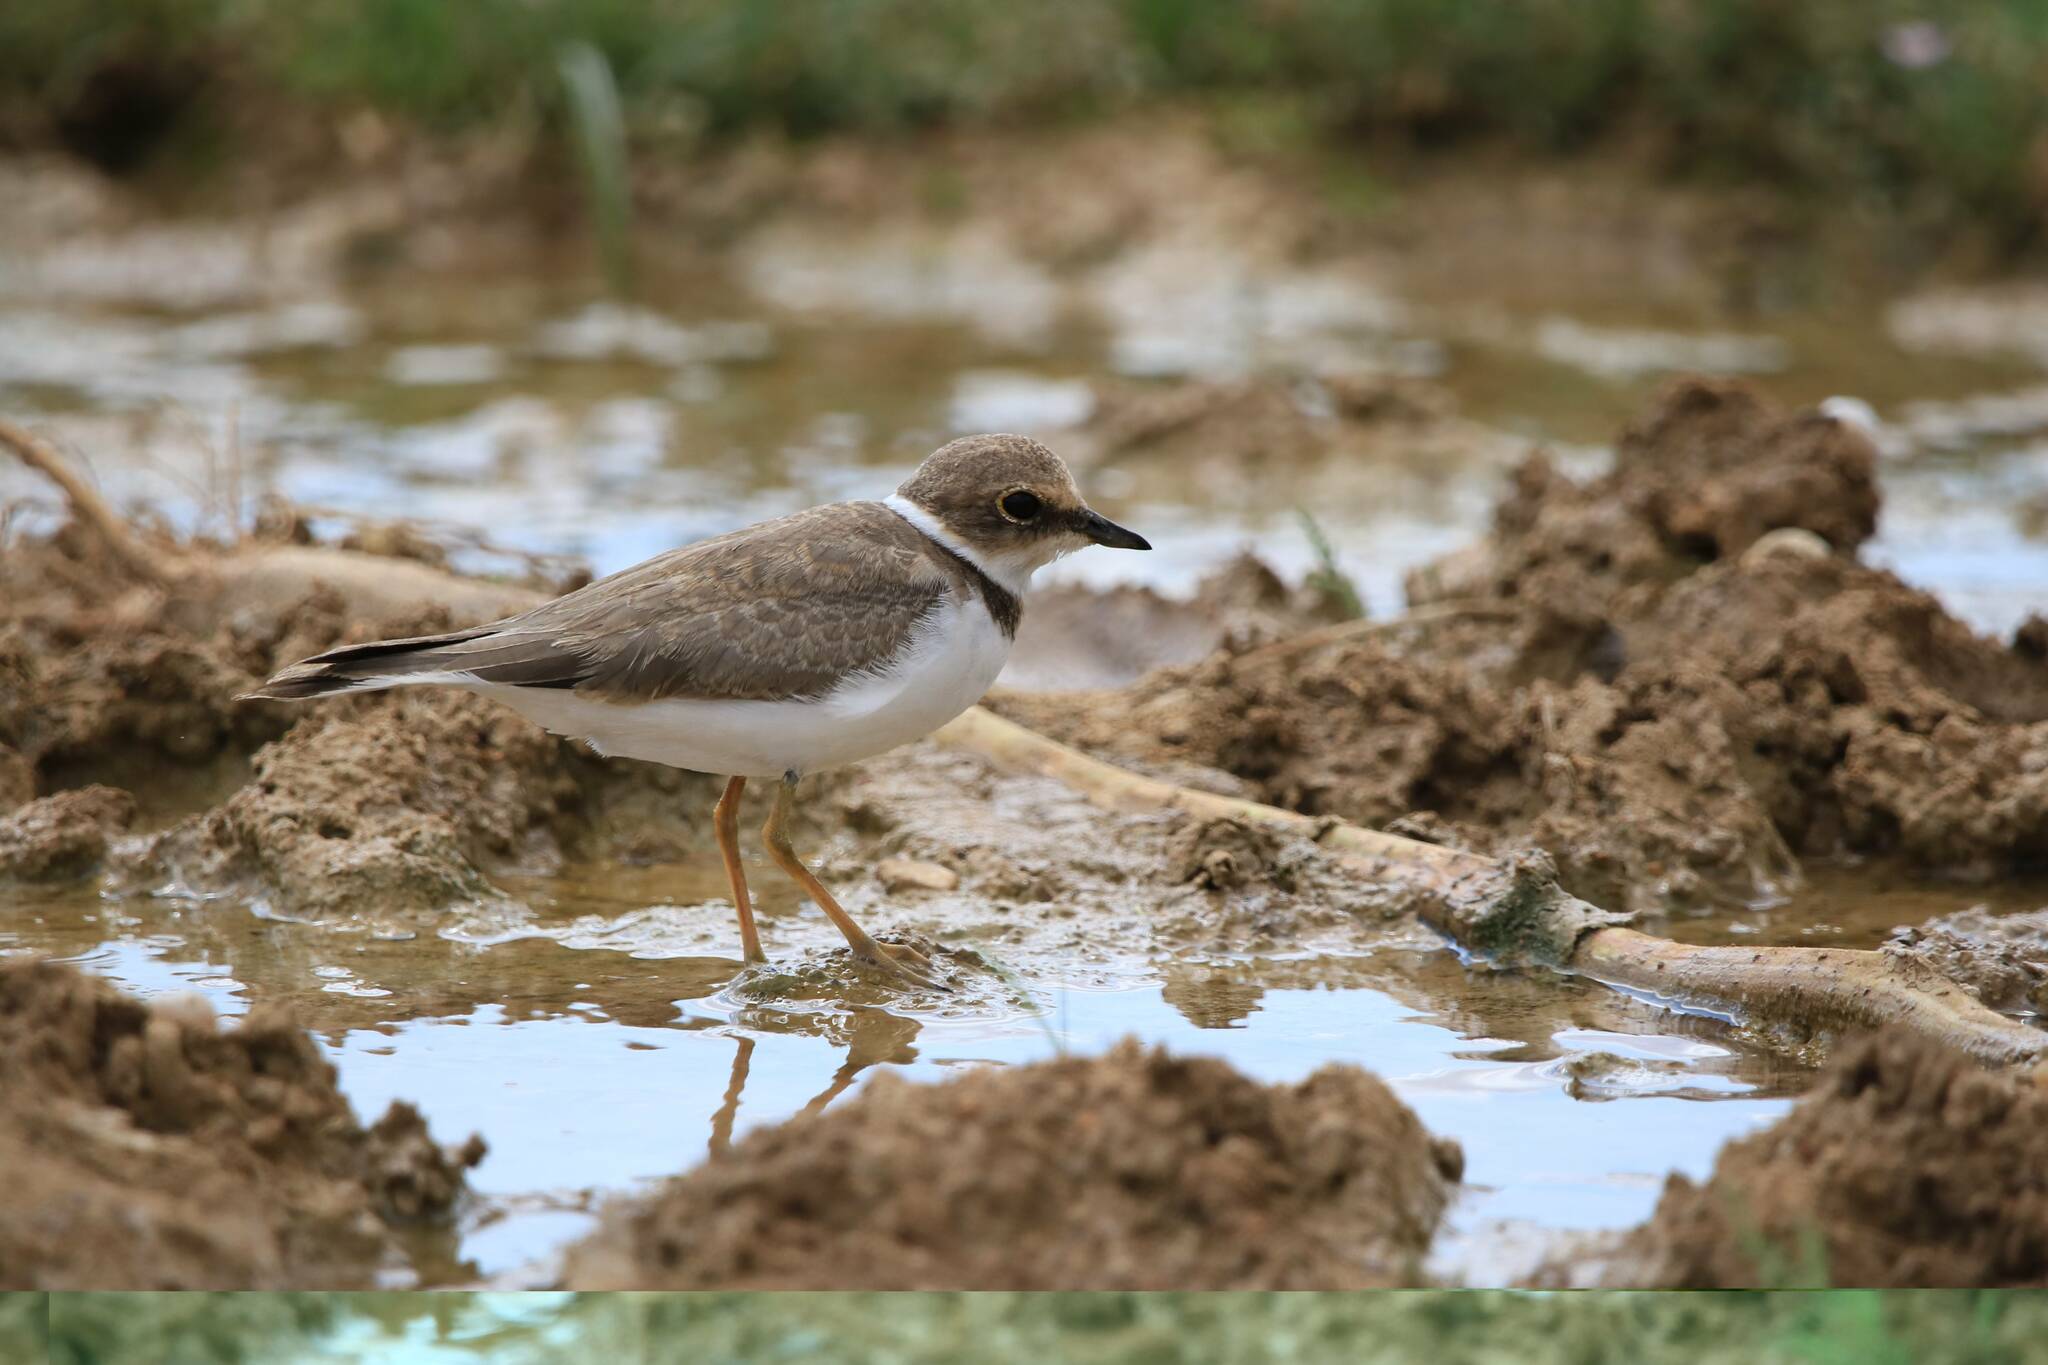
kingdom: Animalia
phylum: Chordata
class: Aves
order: Charadriiformes
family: Charadriidae
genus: Charadrius
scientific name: Charadrius dubius
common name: Little ringed plover
